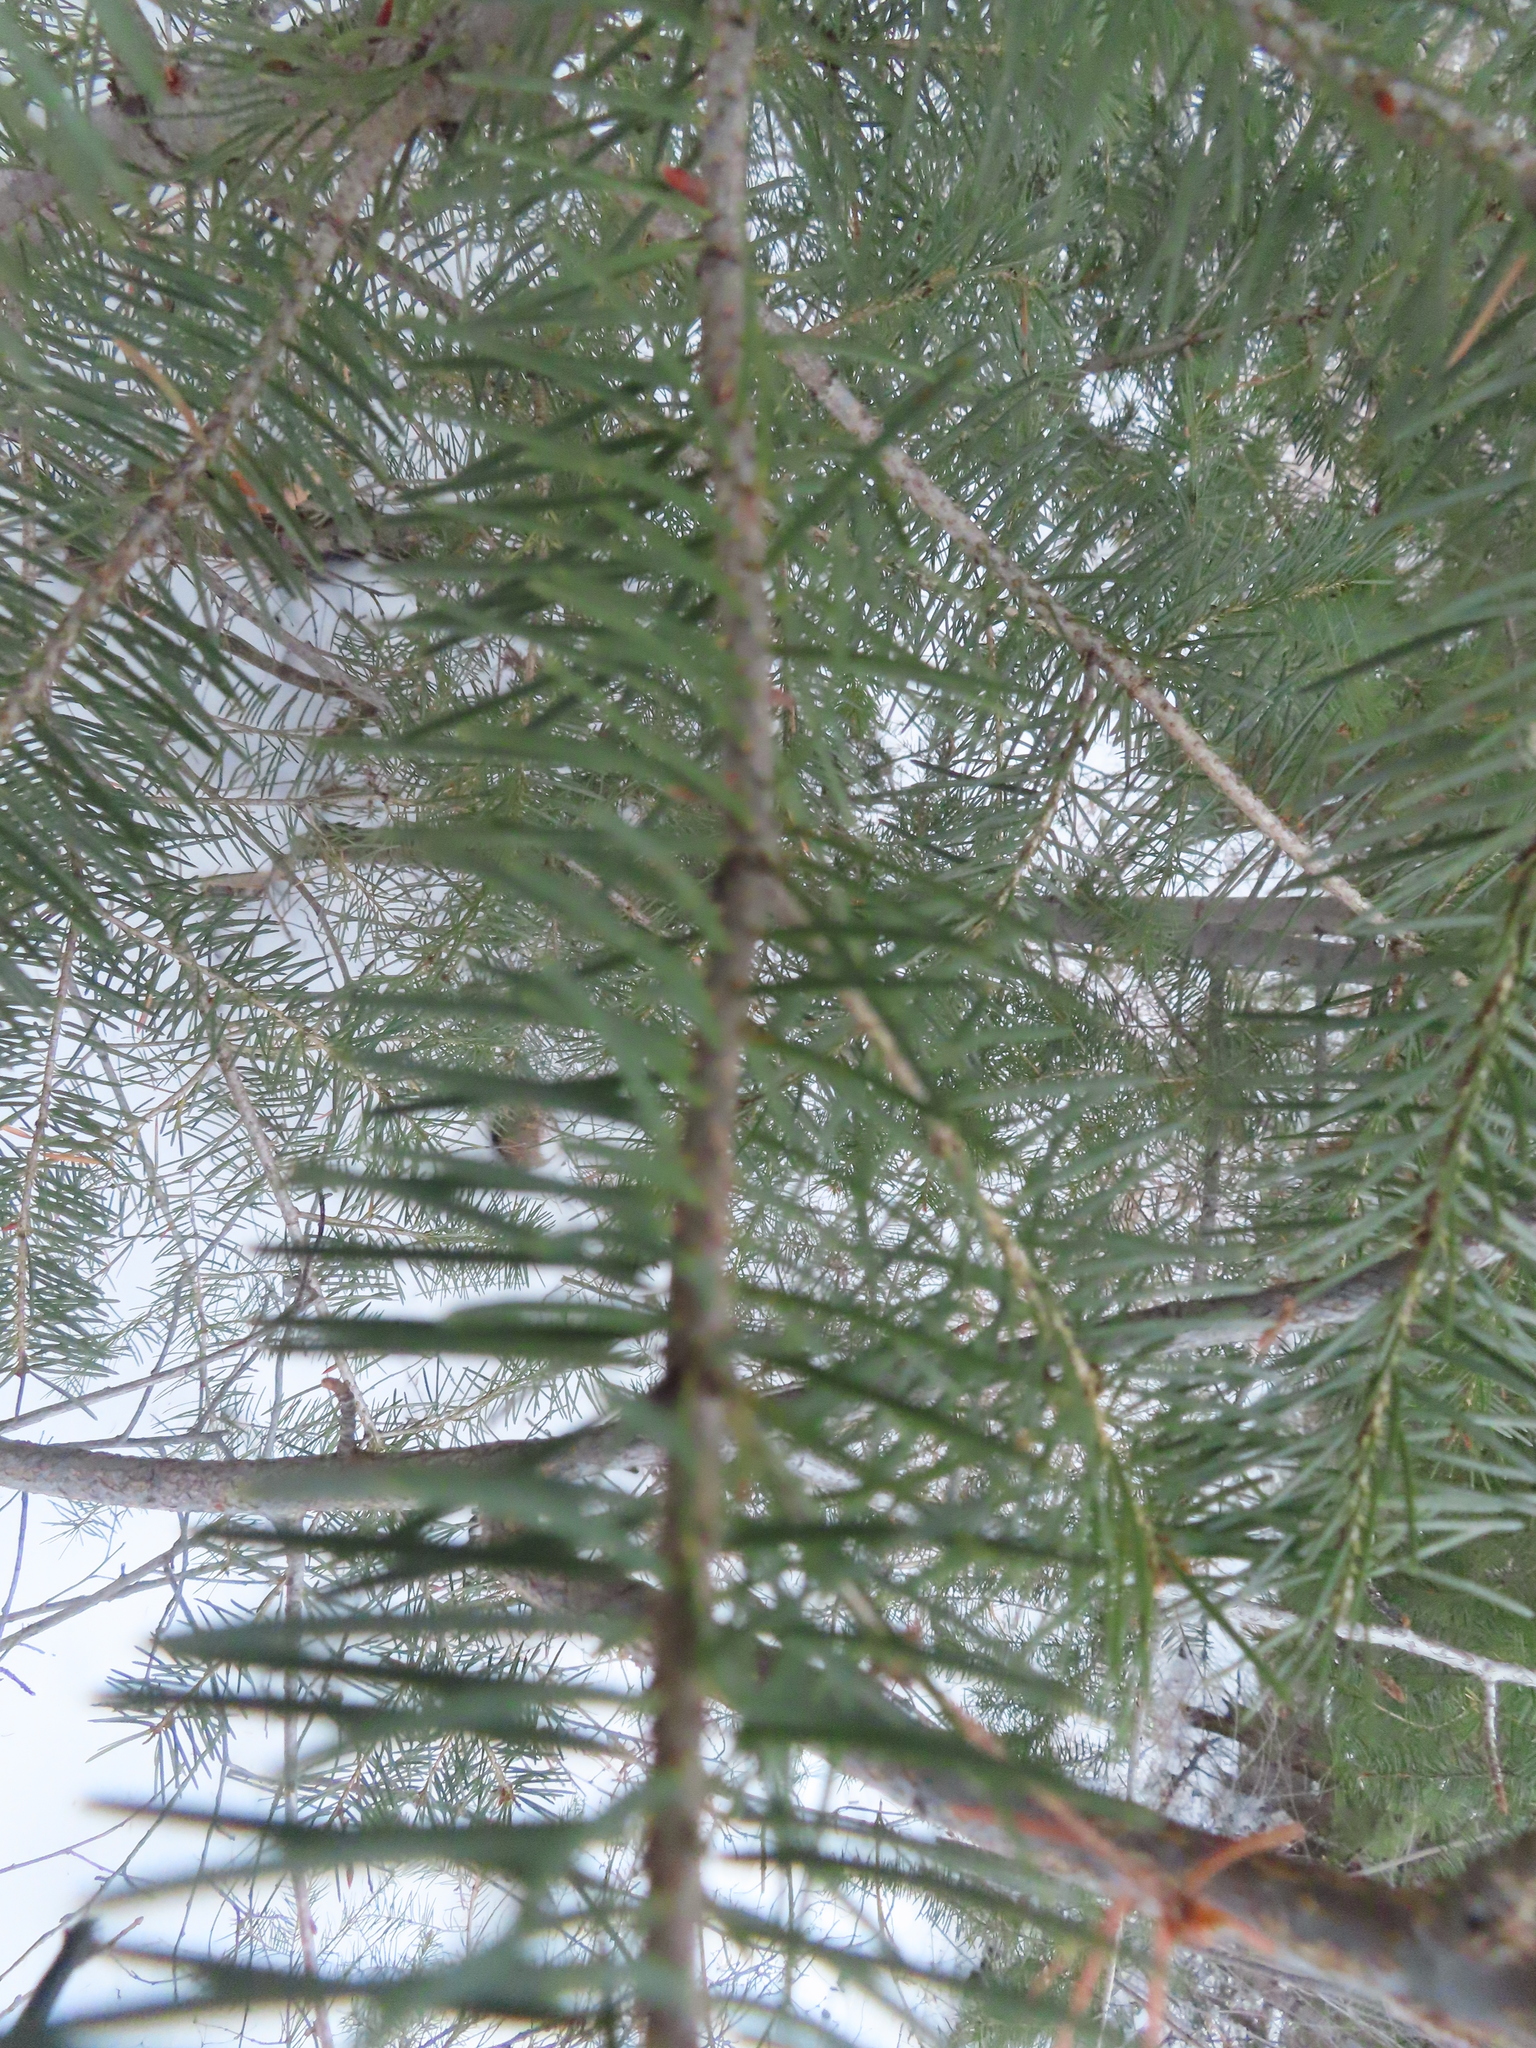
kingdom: Plantae
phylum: Tracheophyta
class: Pinopsida
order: Pinales
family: Pinaceae
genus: Pseudotsuga
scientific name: Pseudotsuga menziesii
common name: Douglas fir
